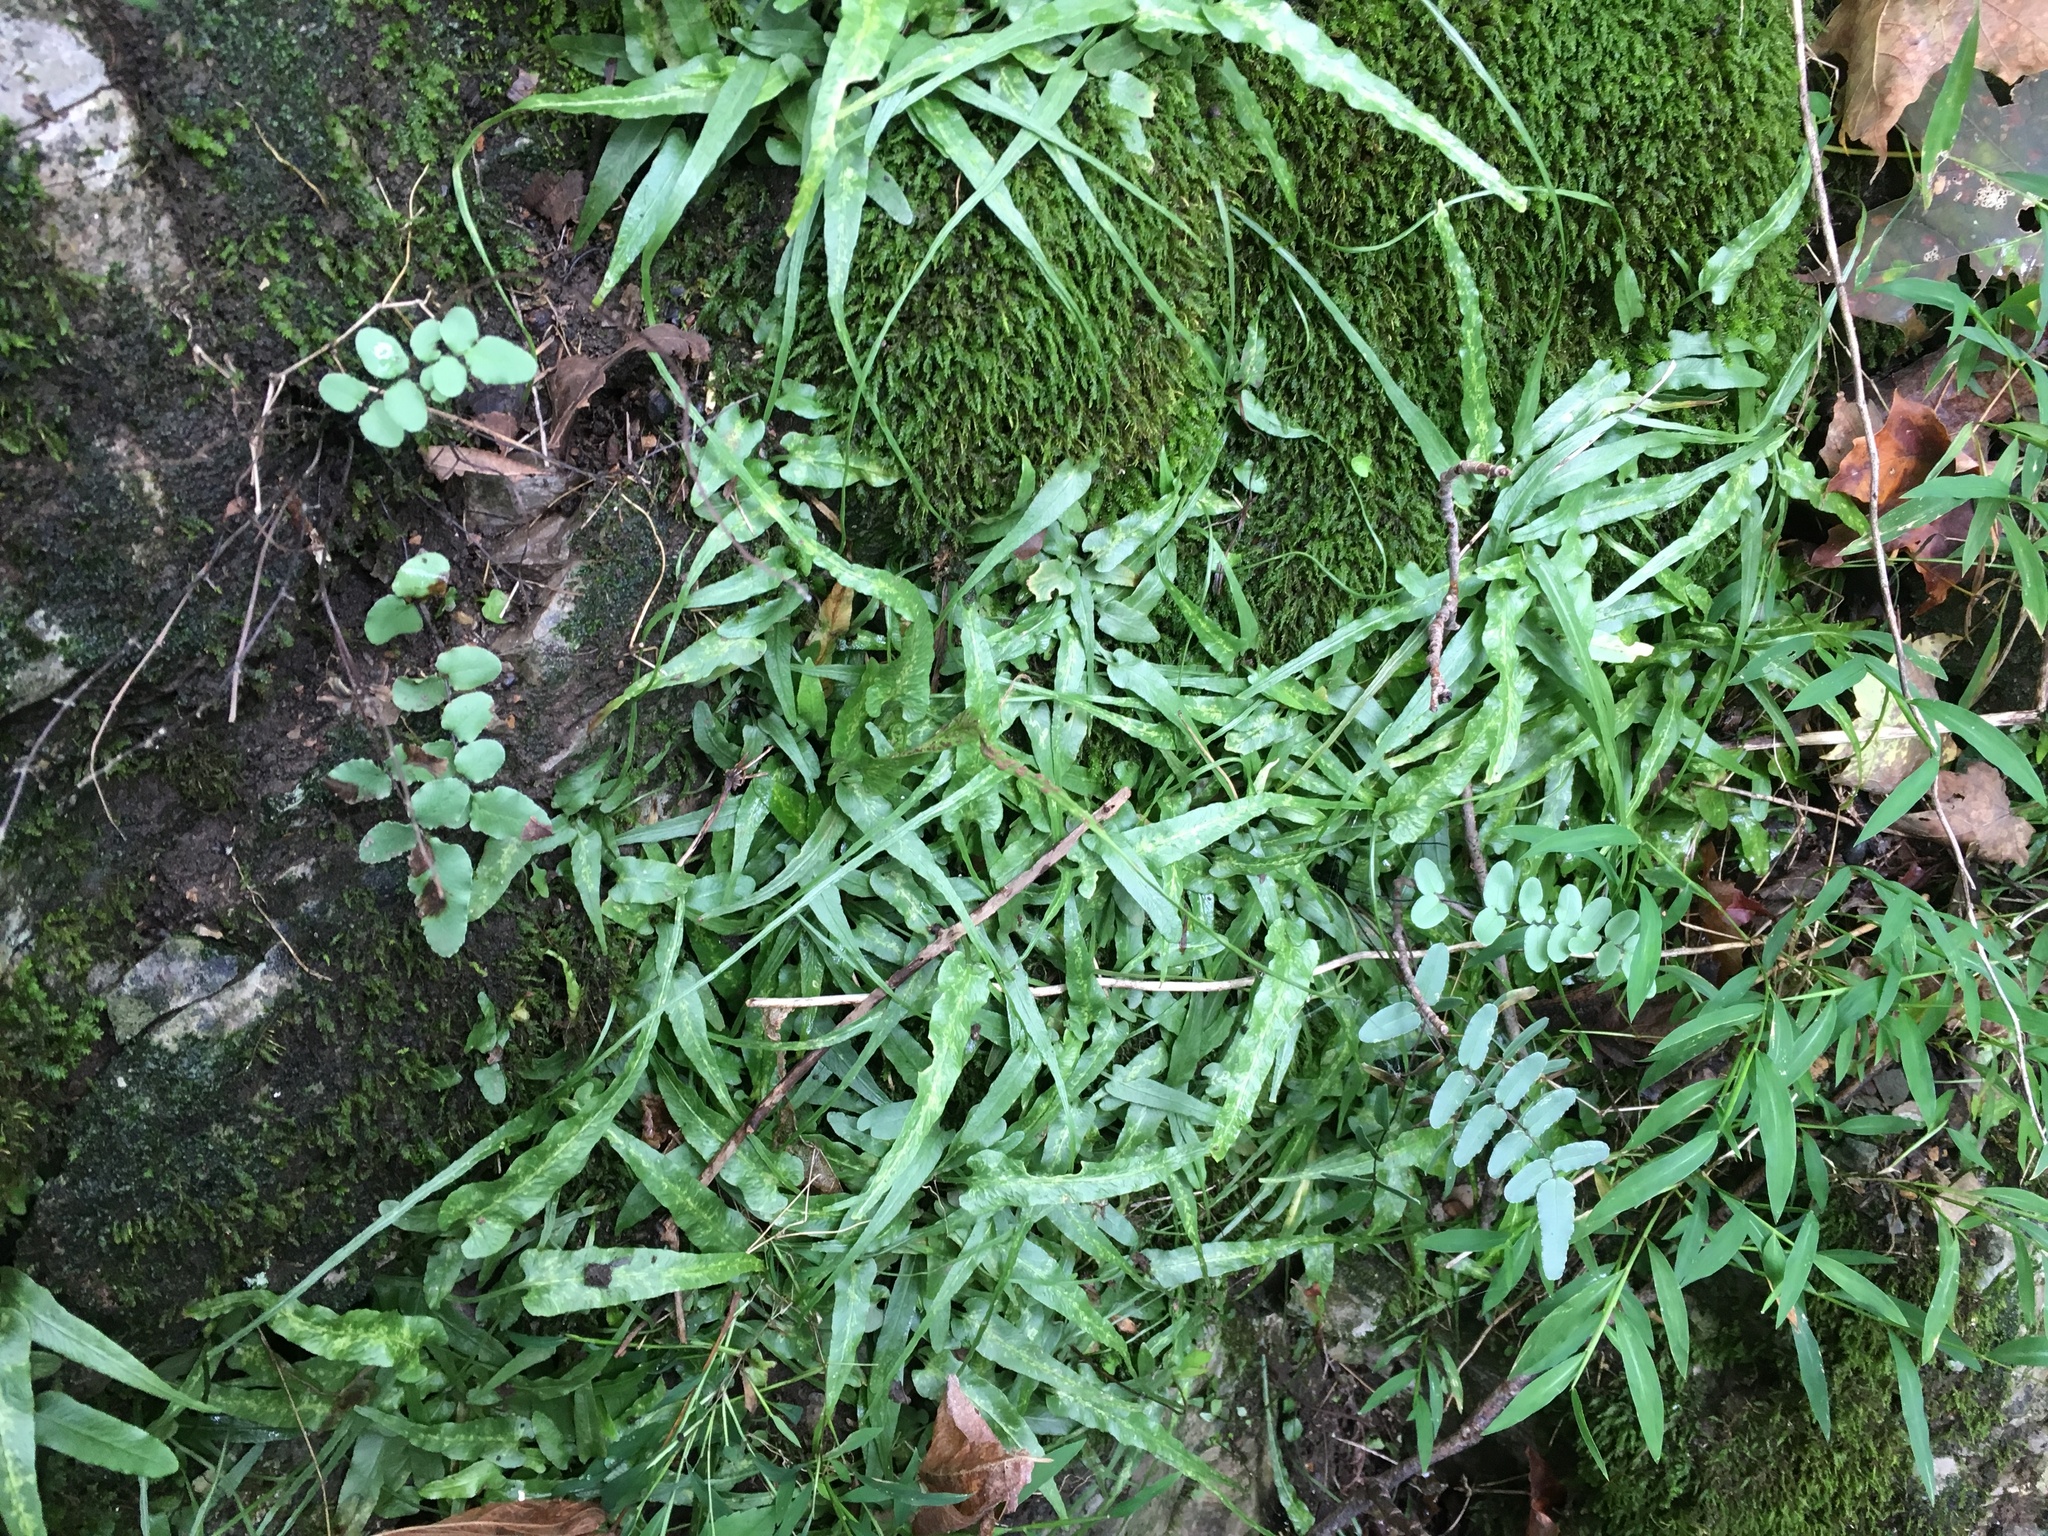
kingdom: Plantae
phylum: Tracheophyta
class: Polypodiopsida
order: Polypodiales
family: Aspleniaceae
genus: Asplenium
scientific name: Asplenium rhizophyllum
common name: Walking fern
